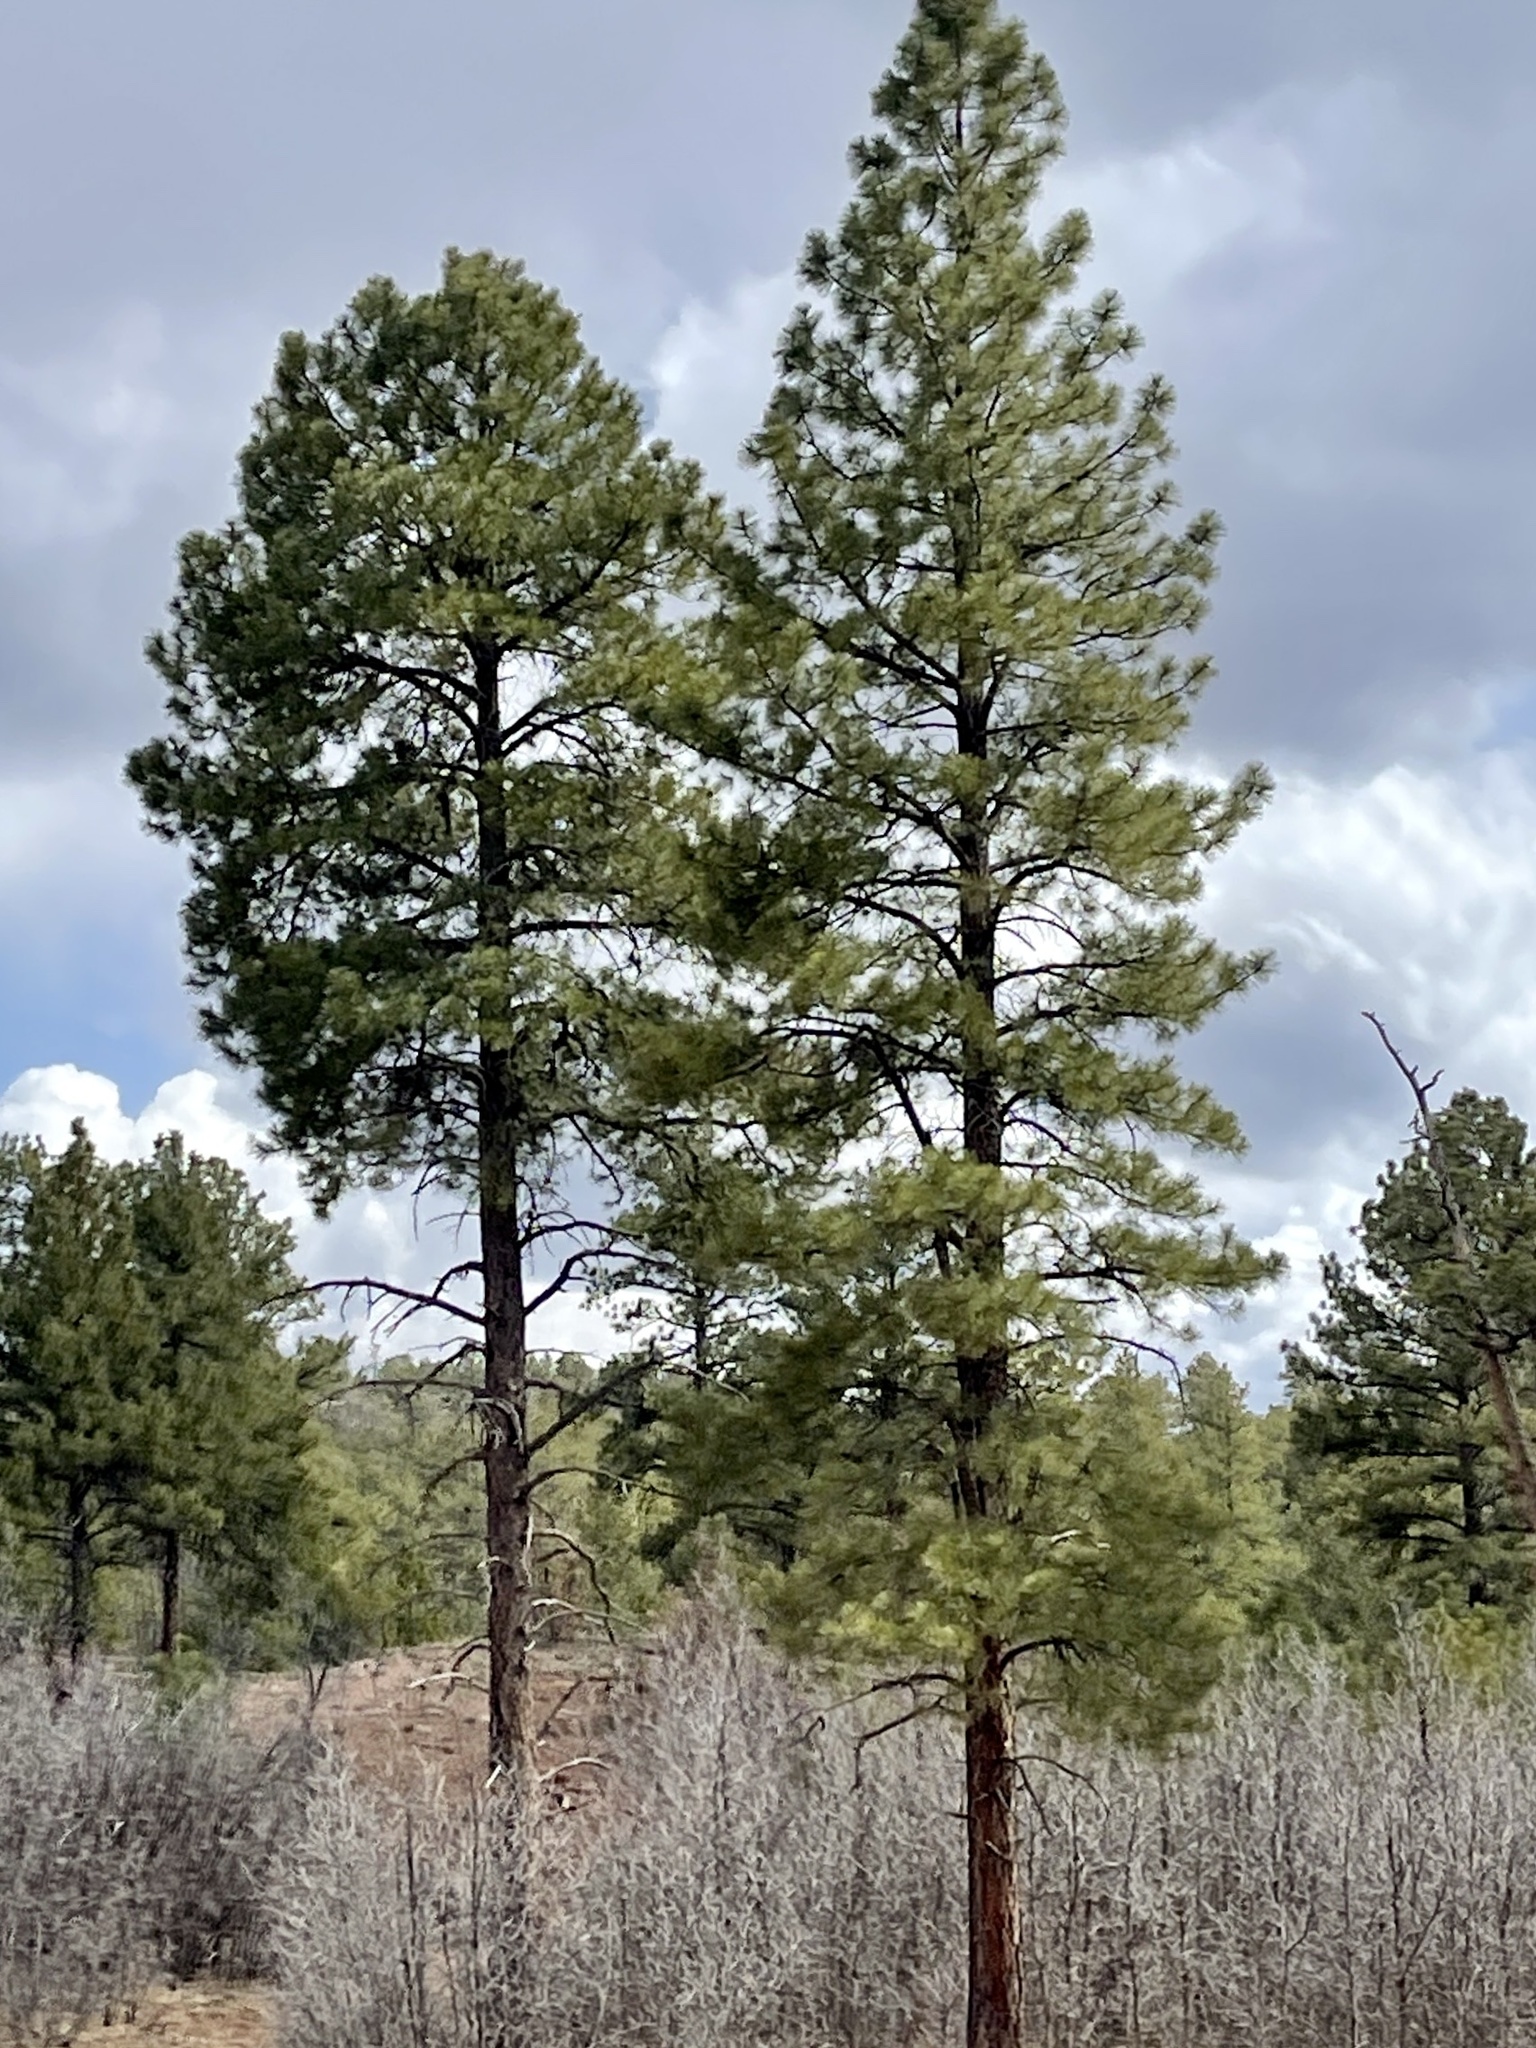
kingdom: Plantae
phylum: Tracheophyta
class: Pinopsida
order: Pinales
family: Pinaceae
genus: Pinus
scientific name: Pinus ponderosa
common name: Western yellow-pine
